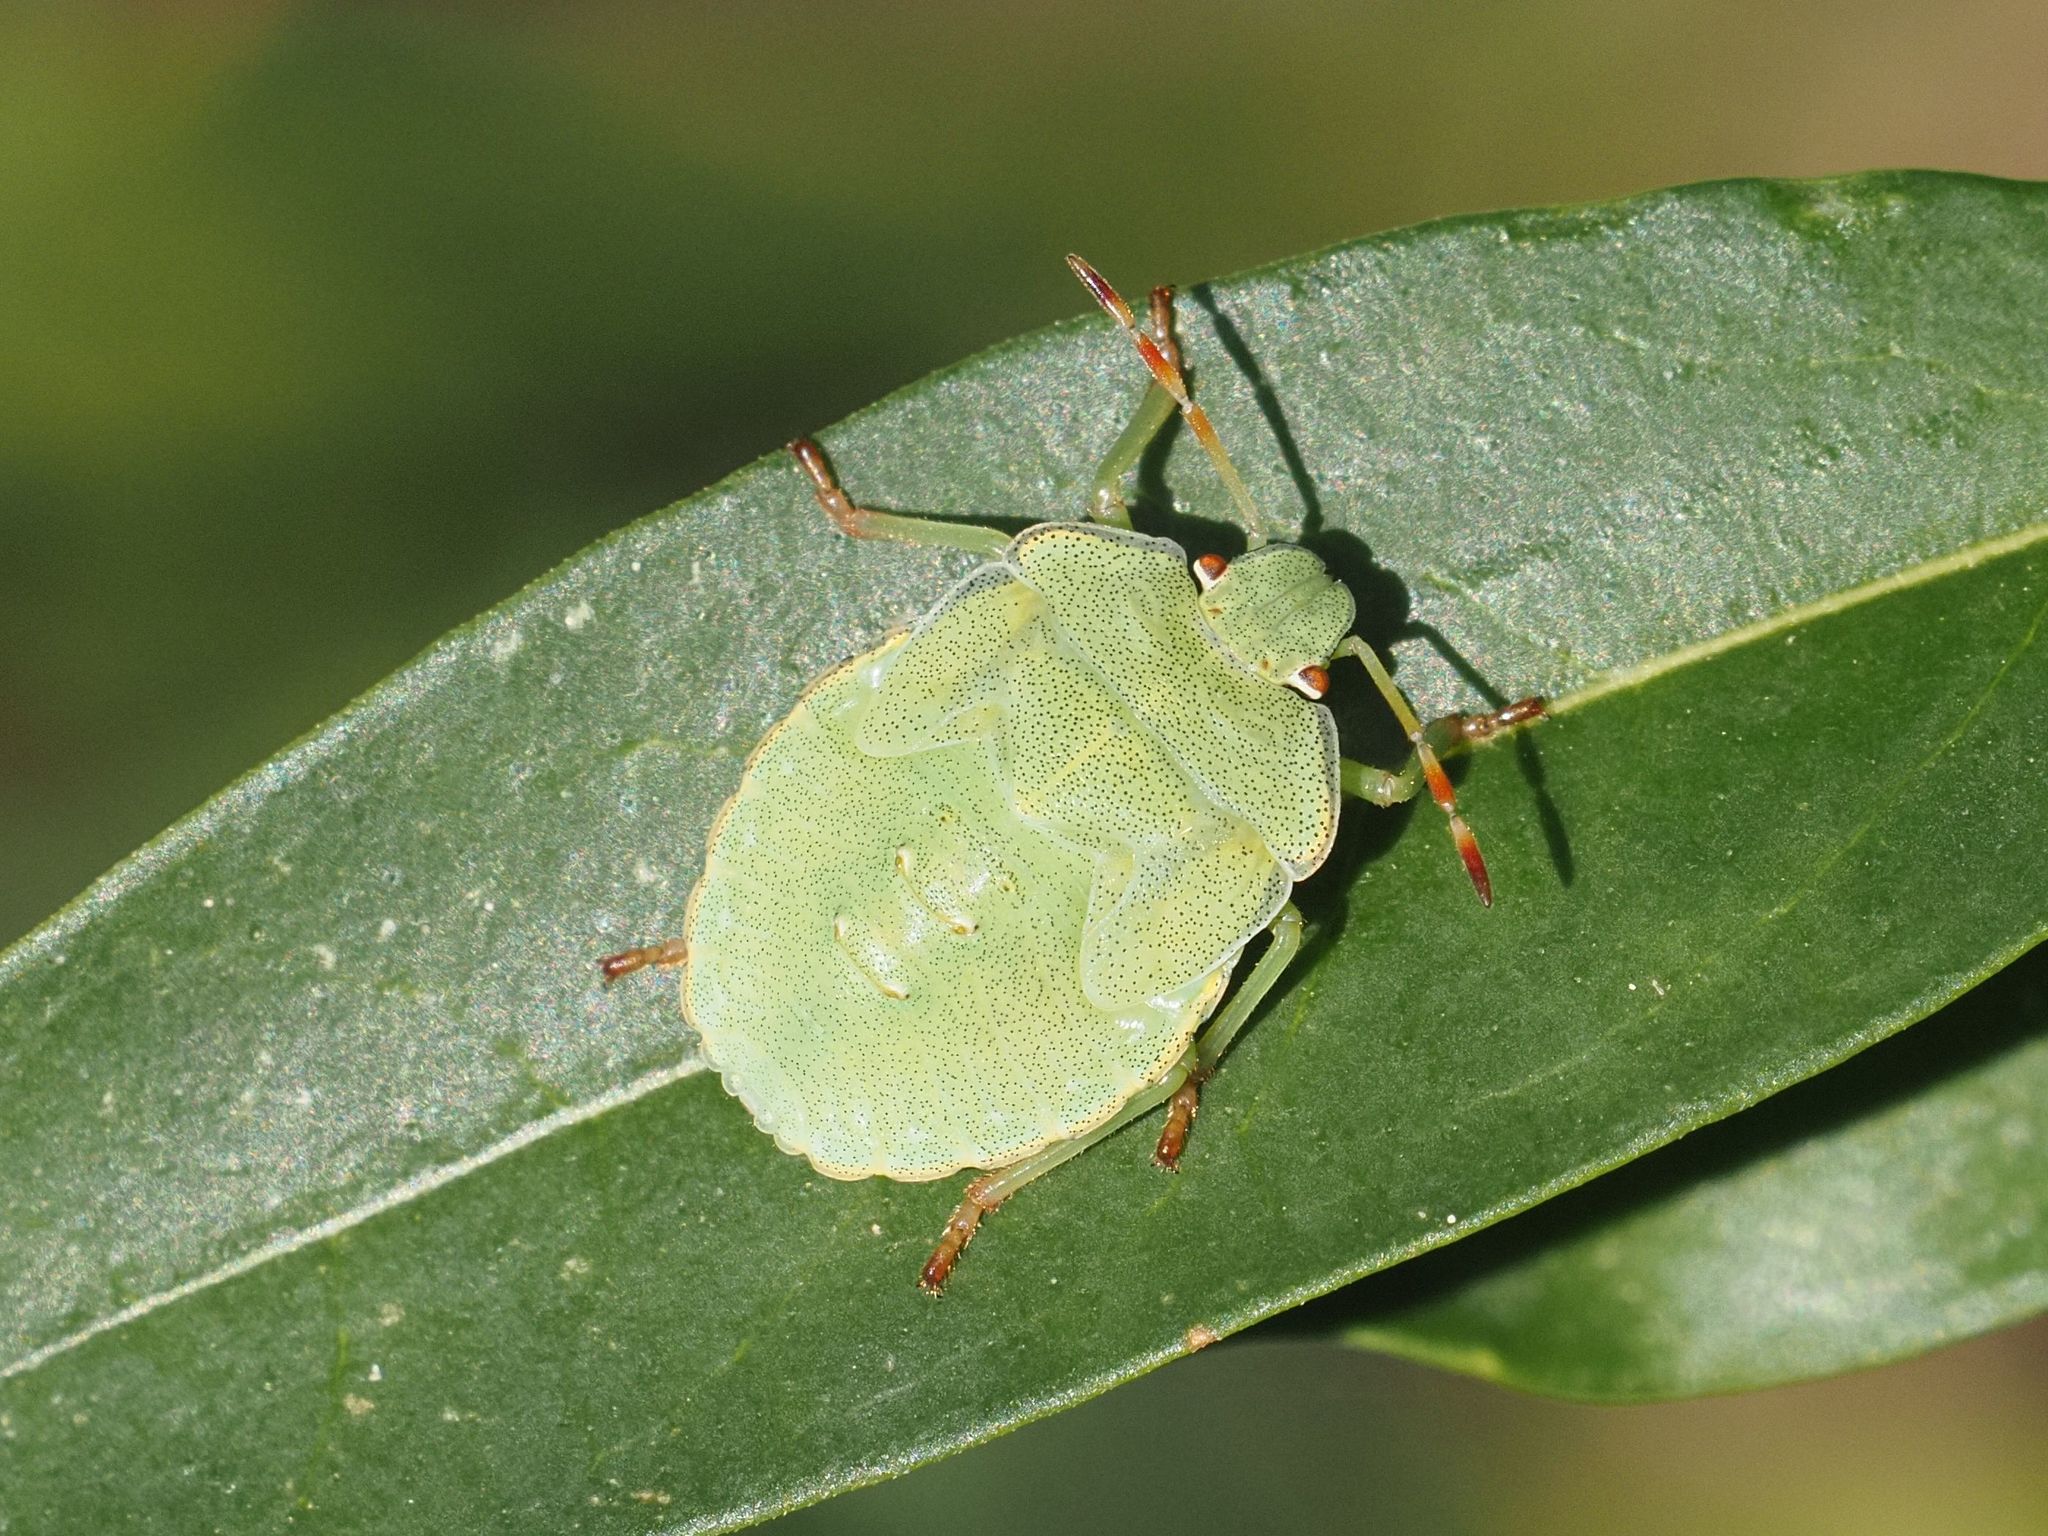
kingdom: Animalia
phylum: Arthropoda
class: Insecta
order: Hemiptera
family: Pentatomidae
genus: Palomena
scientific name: Palomena prasina
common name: Green shieldbug
